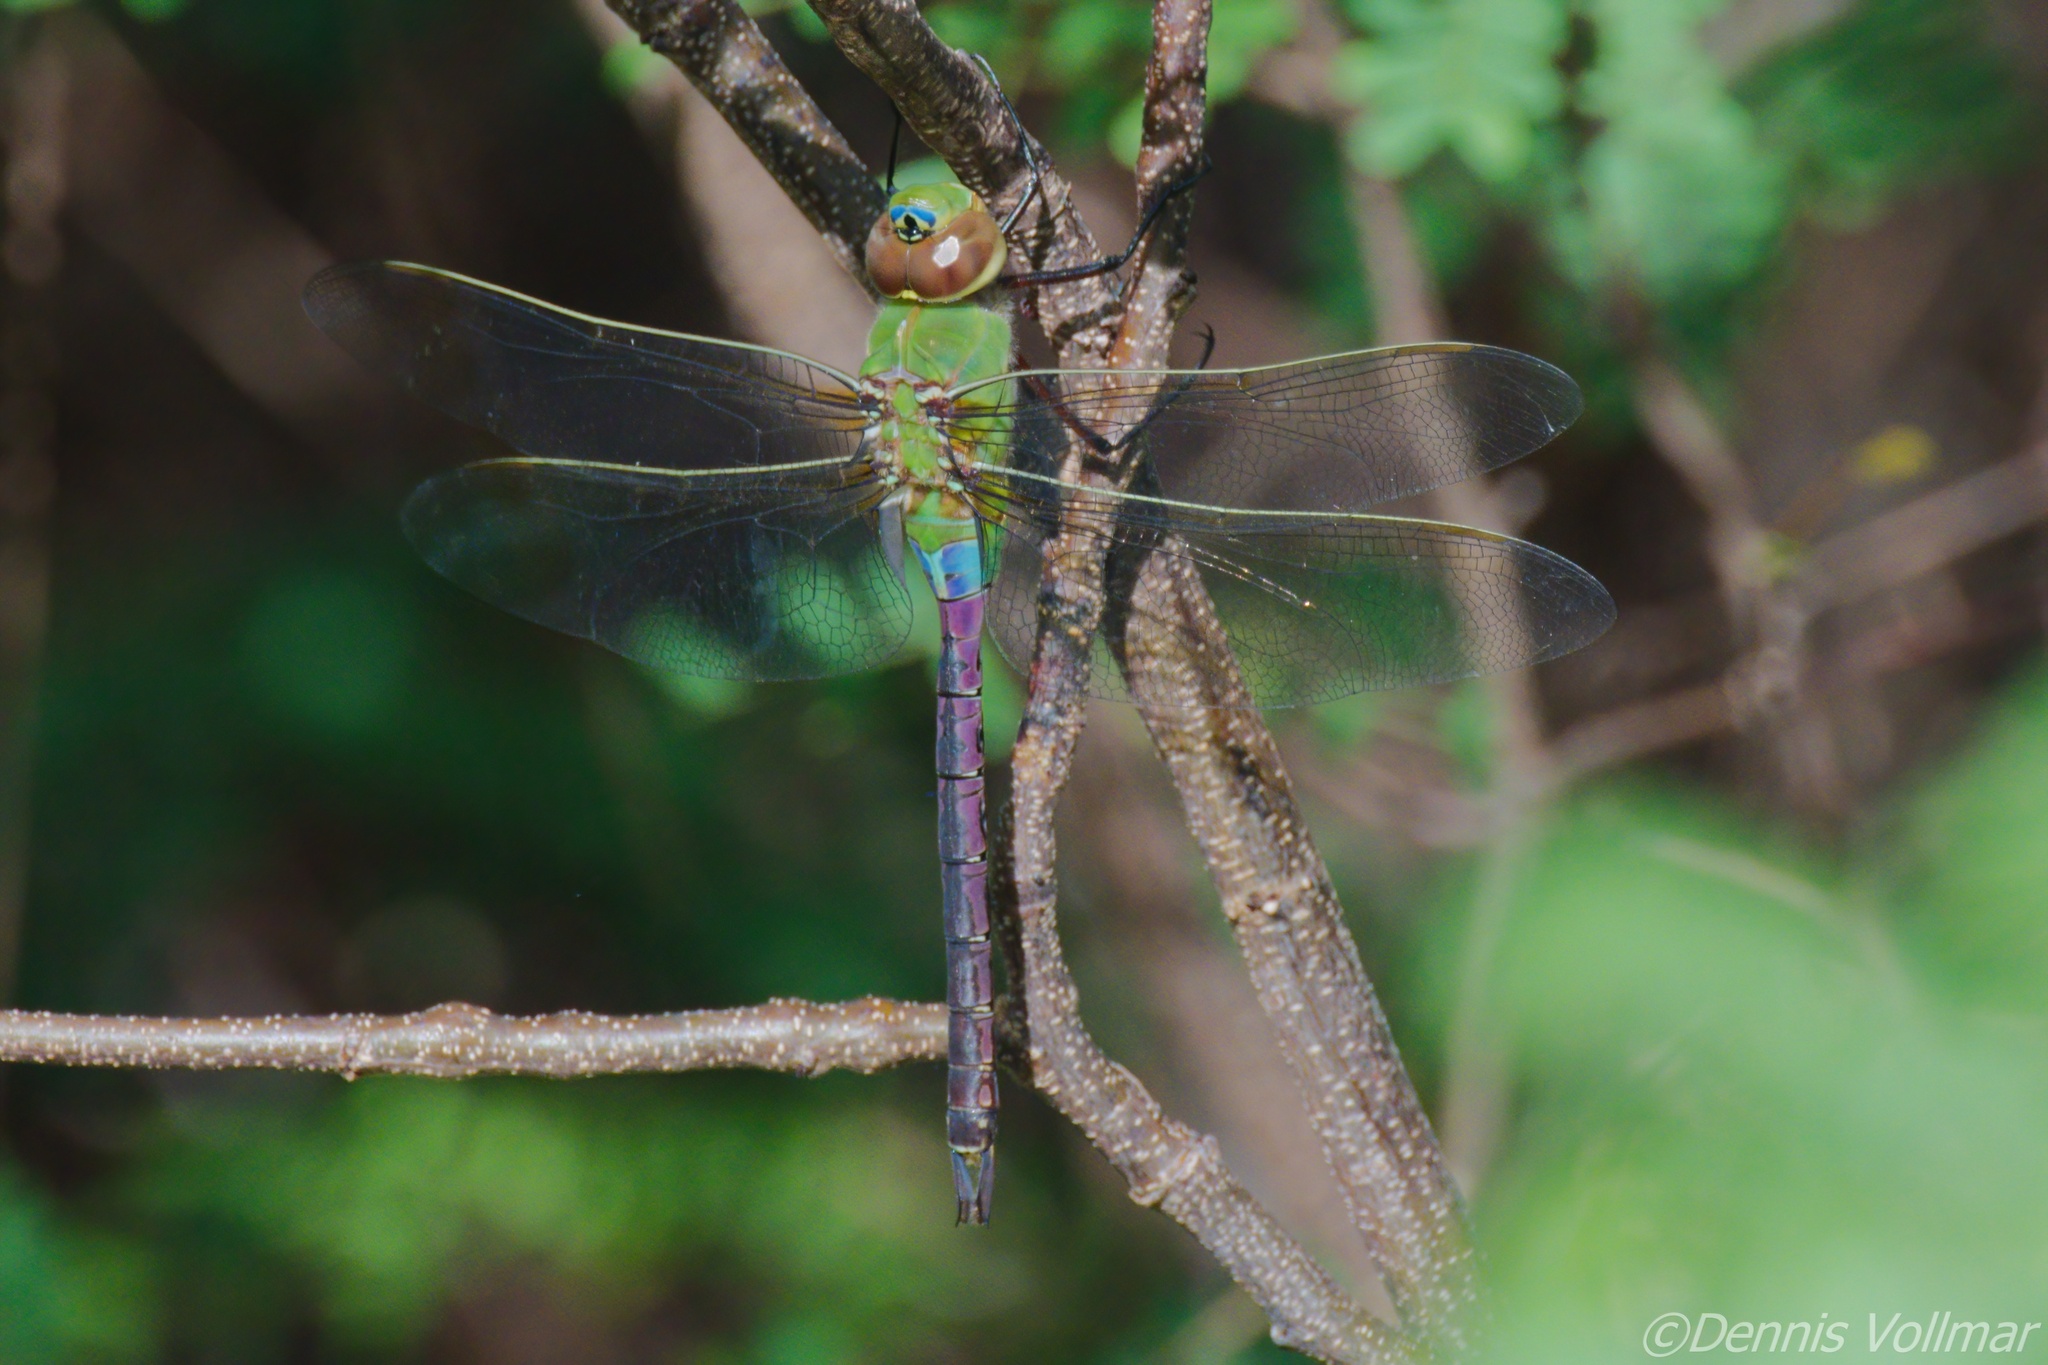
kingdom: Animalia
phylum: Arthropoda
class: Insecta
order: Odonata
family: Aeshnidae
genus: Anax
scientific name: Anax junius
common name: Common green darner
